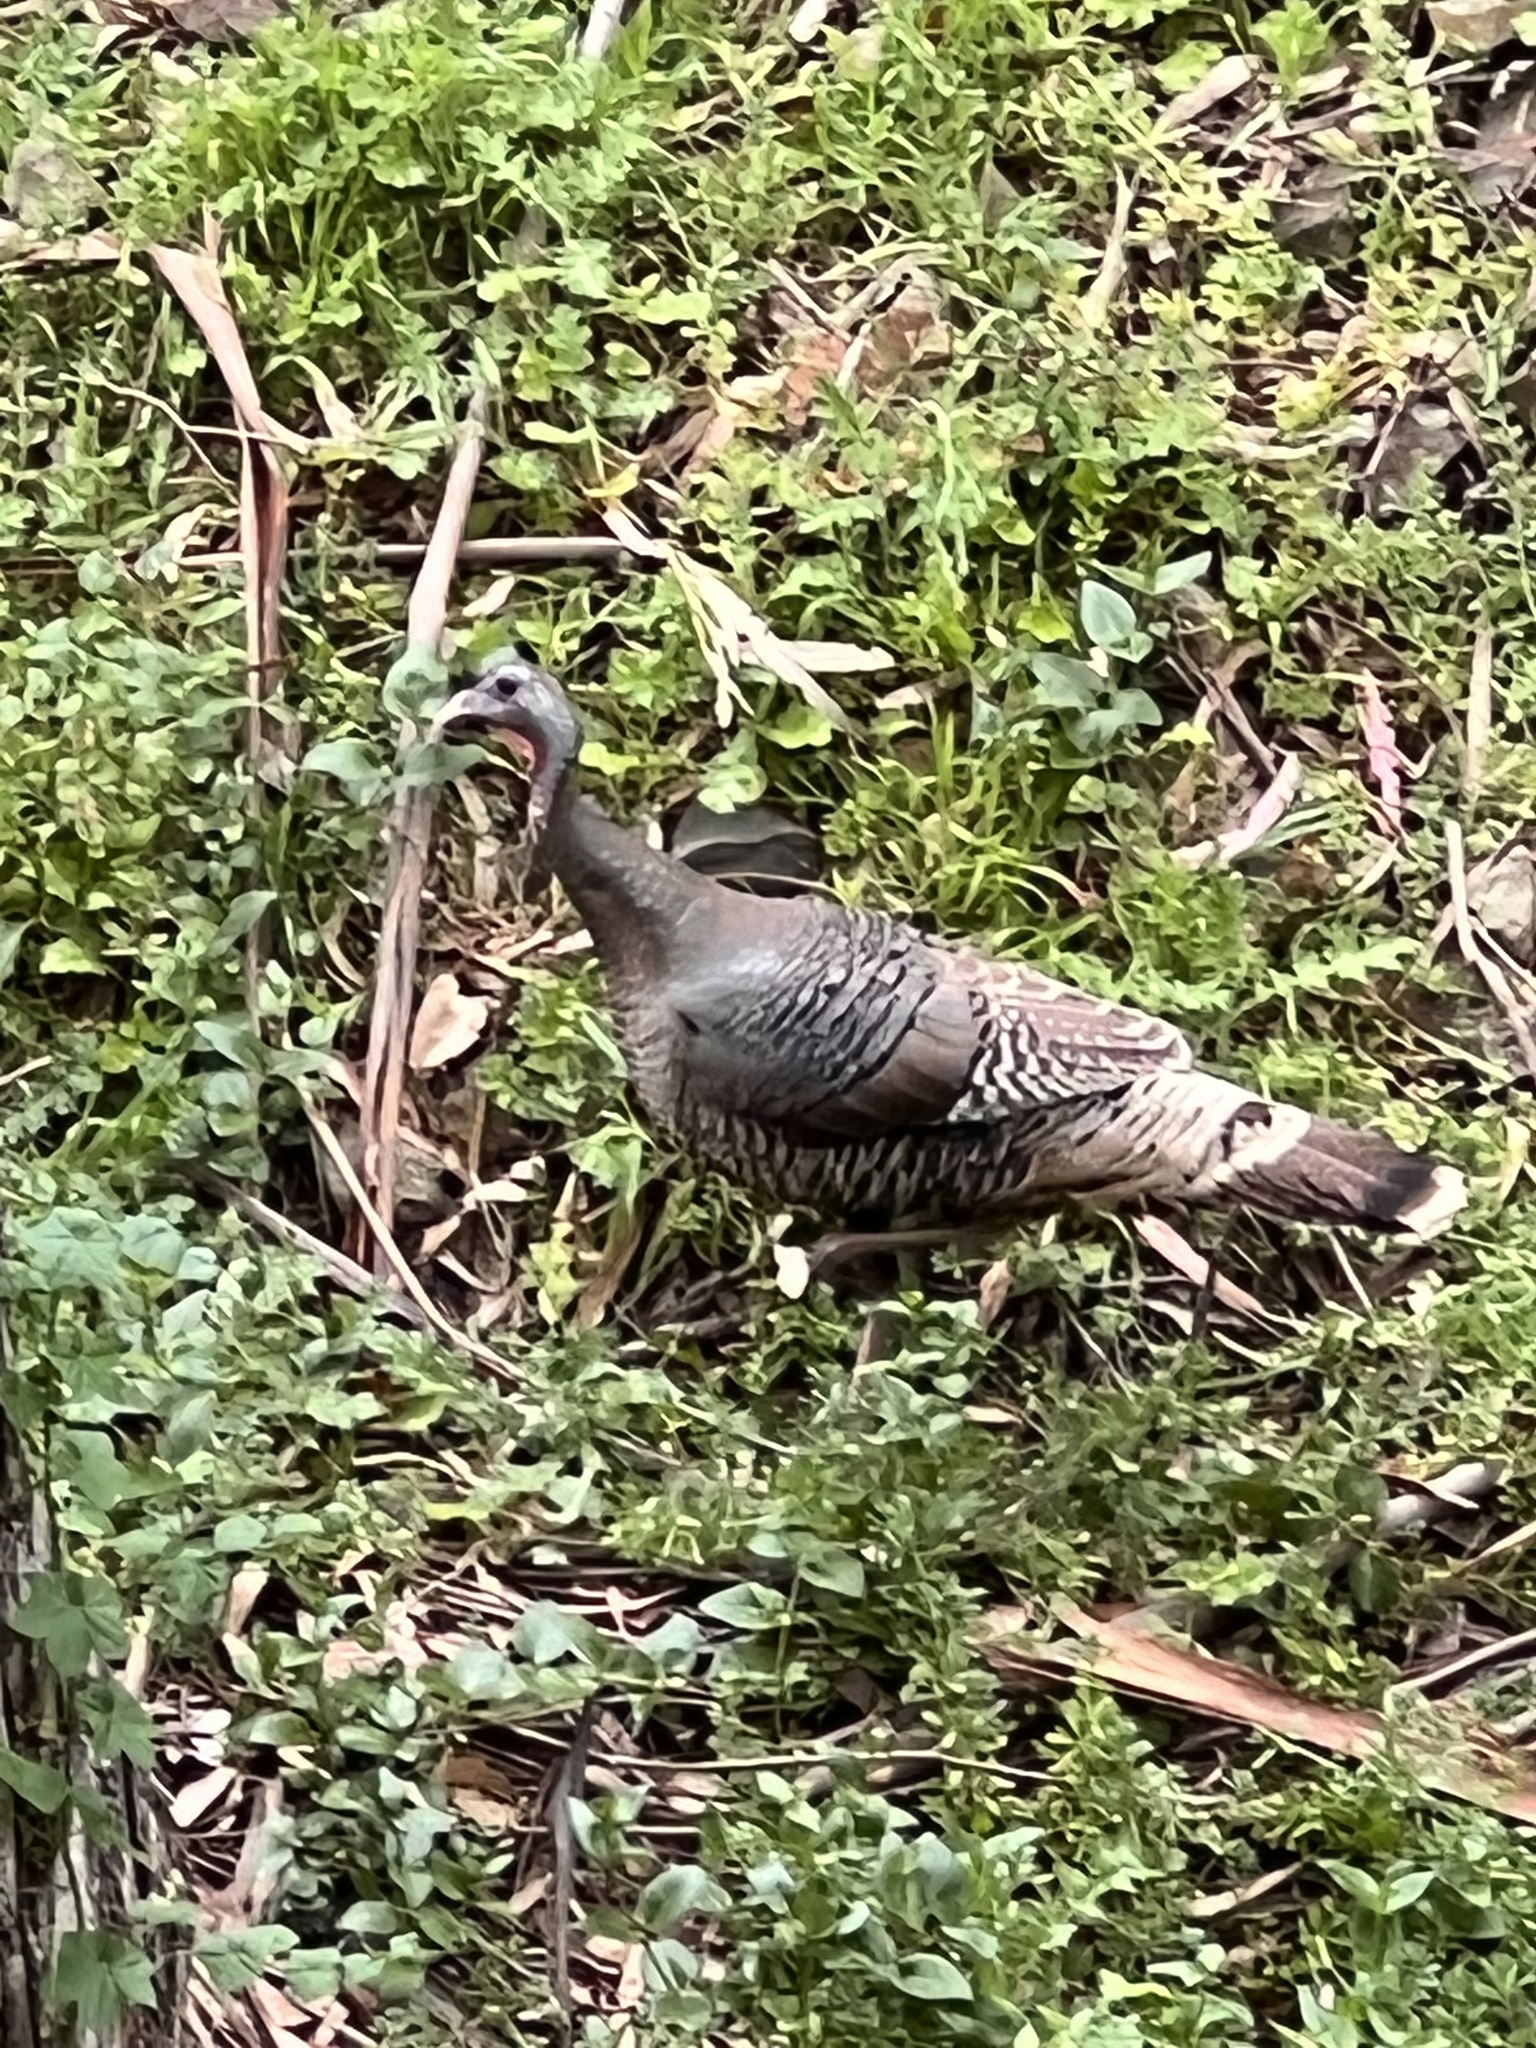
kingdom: Animalia
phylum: Chordata
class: Aves
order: Galliformes
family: Phasianidae
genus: Meleagris
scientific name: Meleagris gallopavo
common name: Wild turkey
